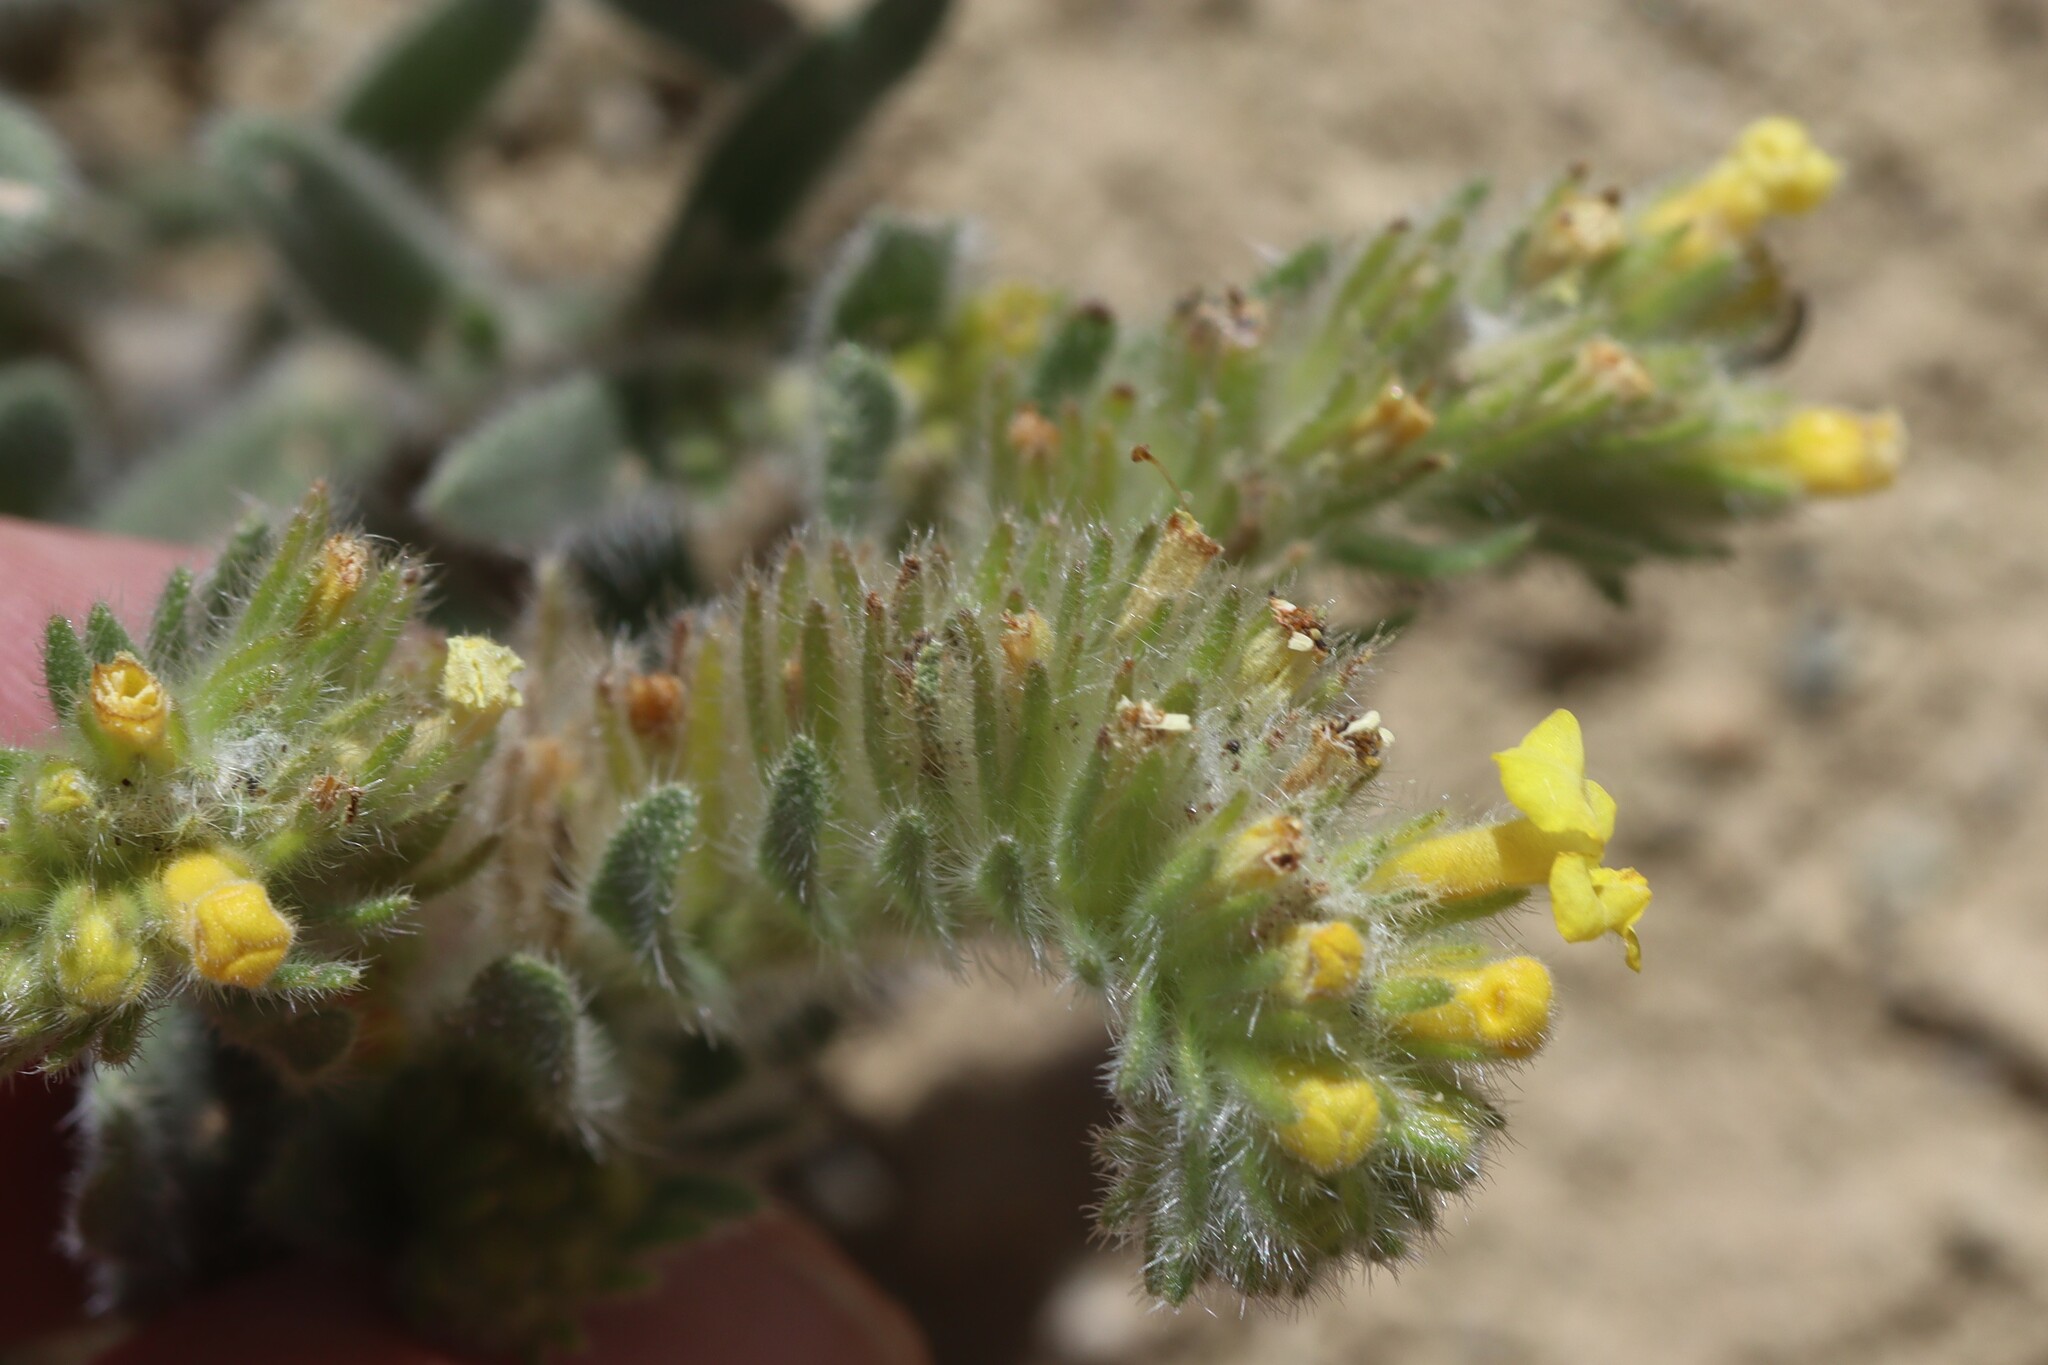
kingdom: Plantae
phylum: Tracheophyta
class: Magnoliopsida
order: Boraginales
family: Boraginaceae
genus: Arnebia
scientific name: Arnebia guttata
